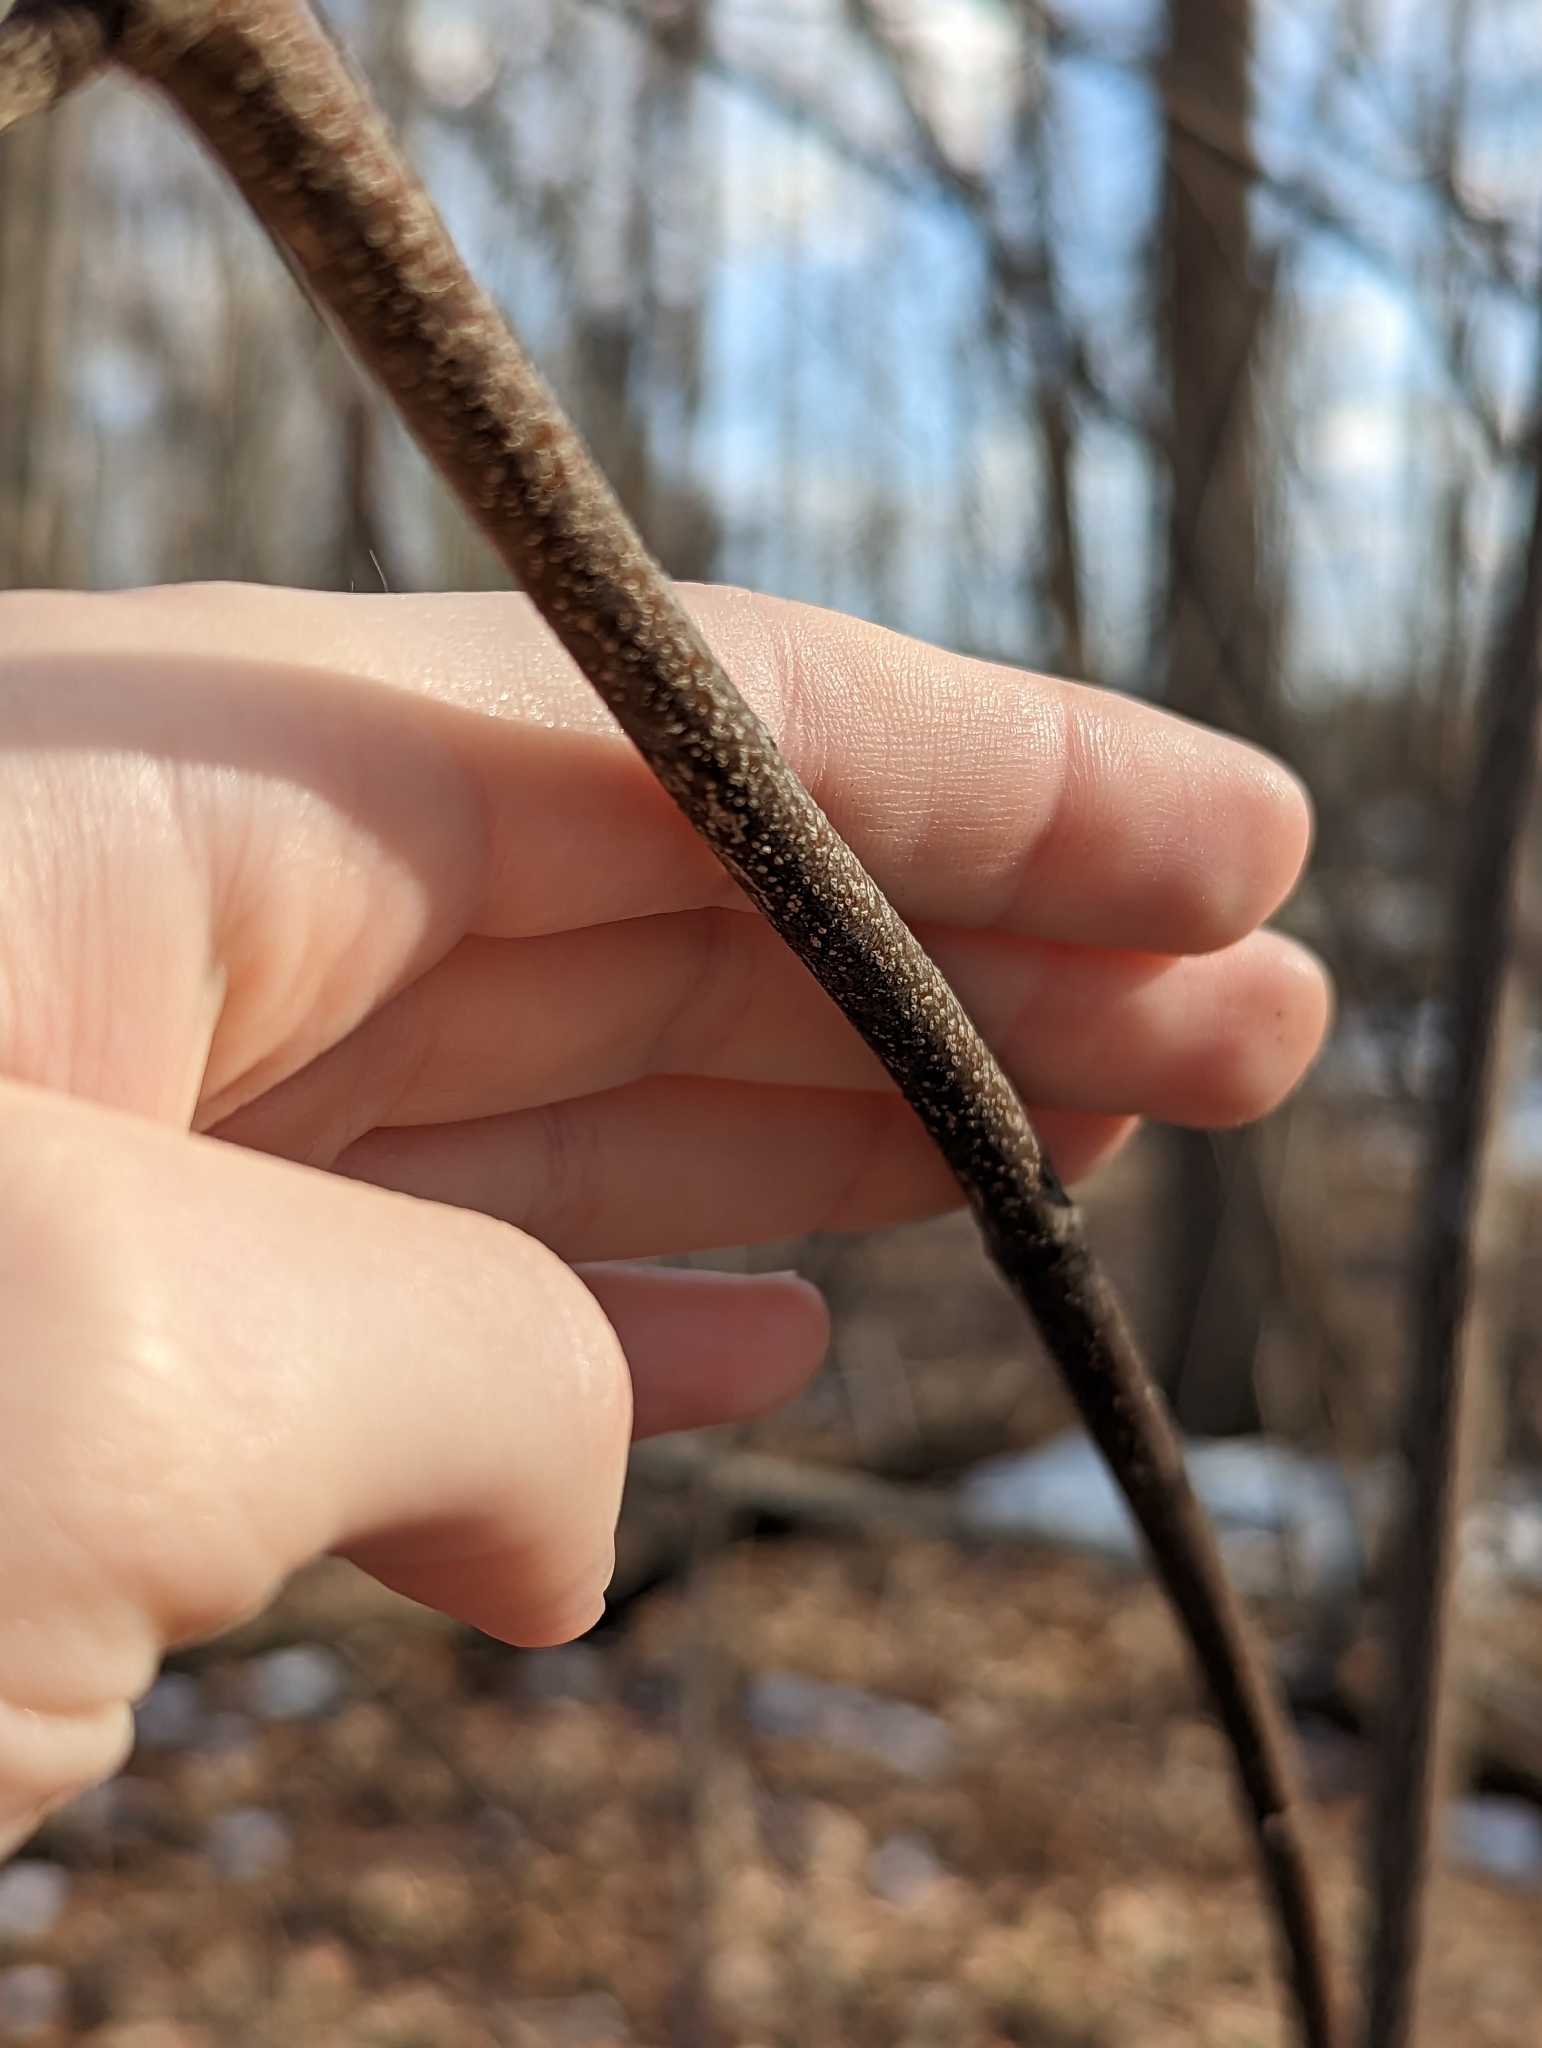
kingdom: Plantae
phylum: Tracheophyta
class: Magnoliopsida
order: Crossosomatales
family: Staphyleaceae
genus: Staphylea
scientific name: Staphylea trifolia
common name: American bladdernut
